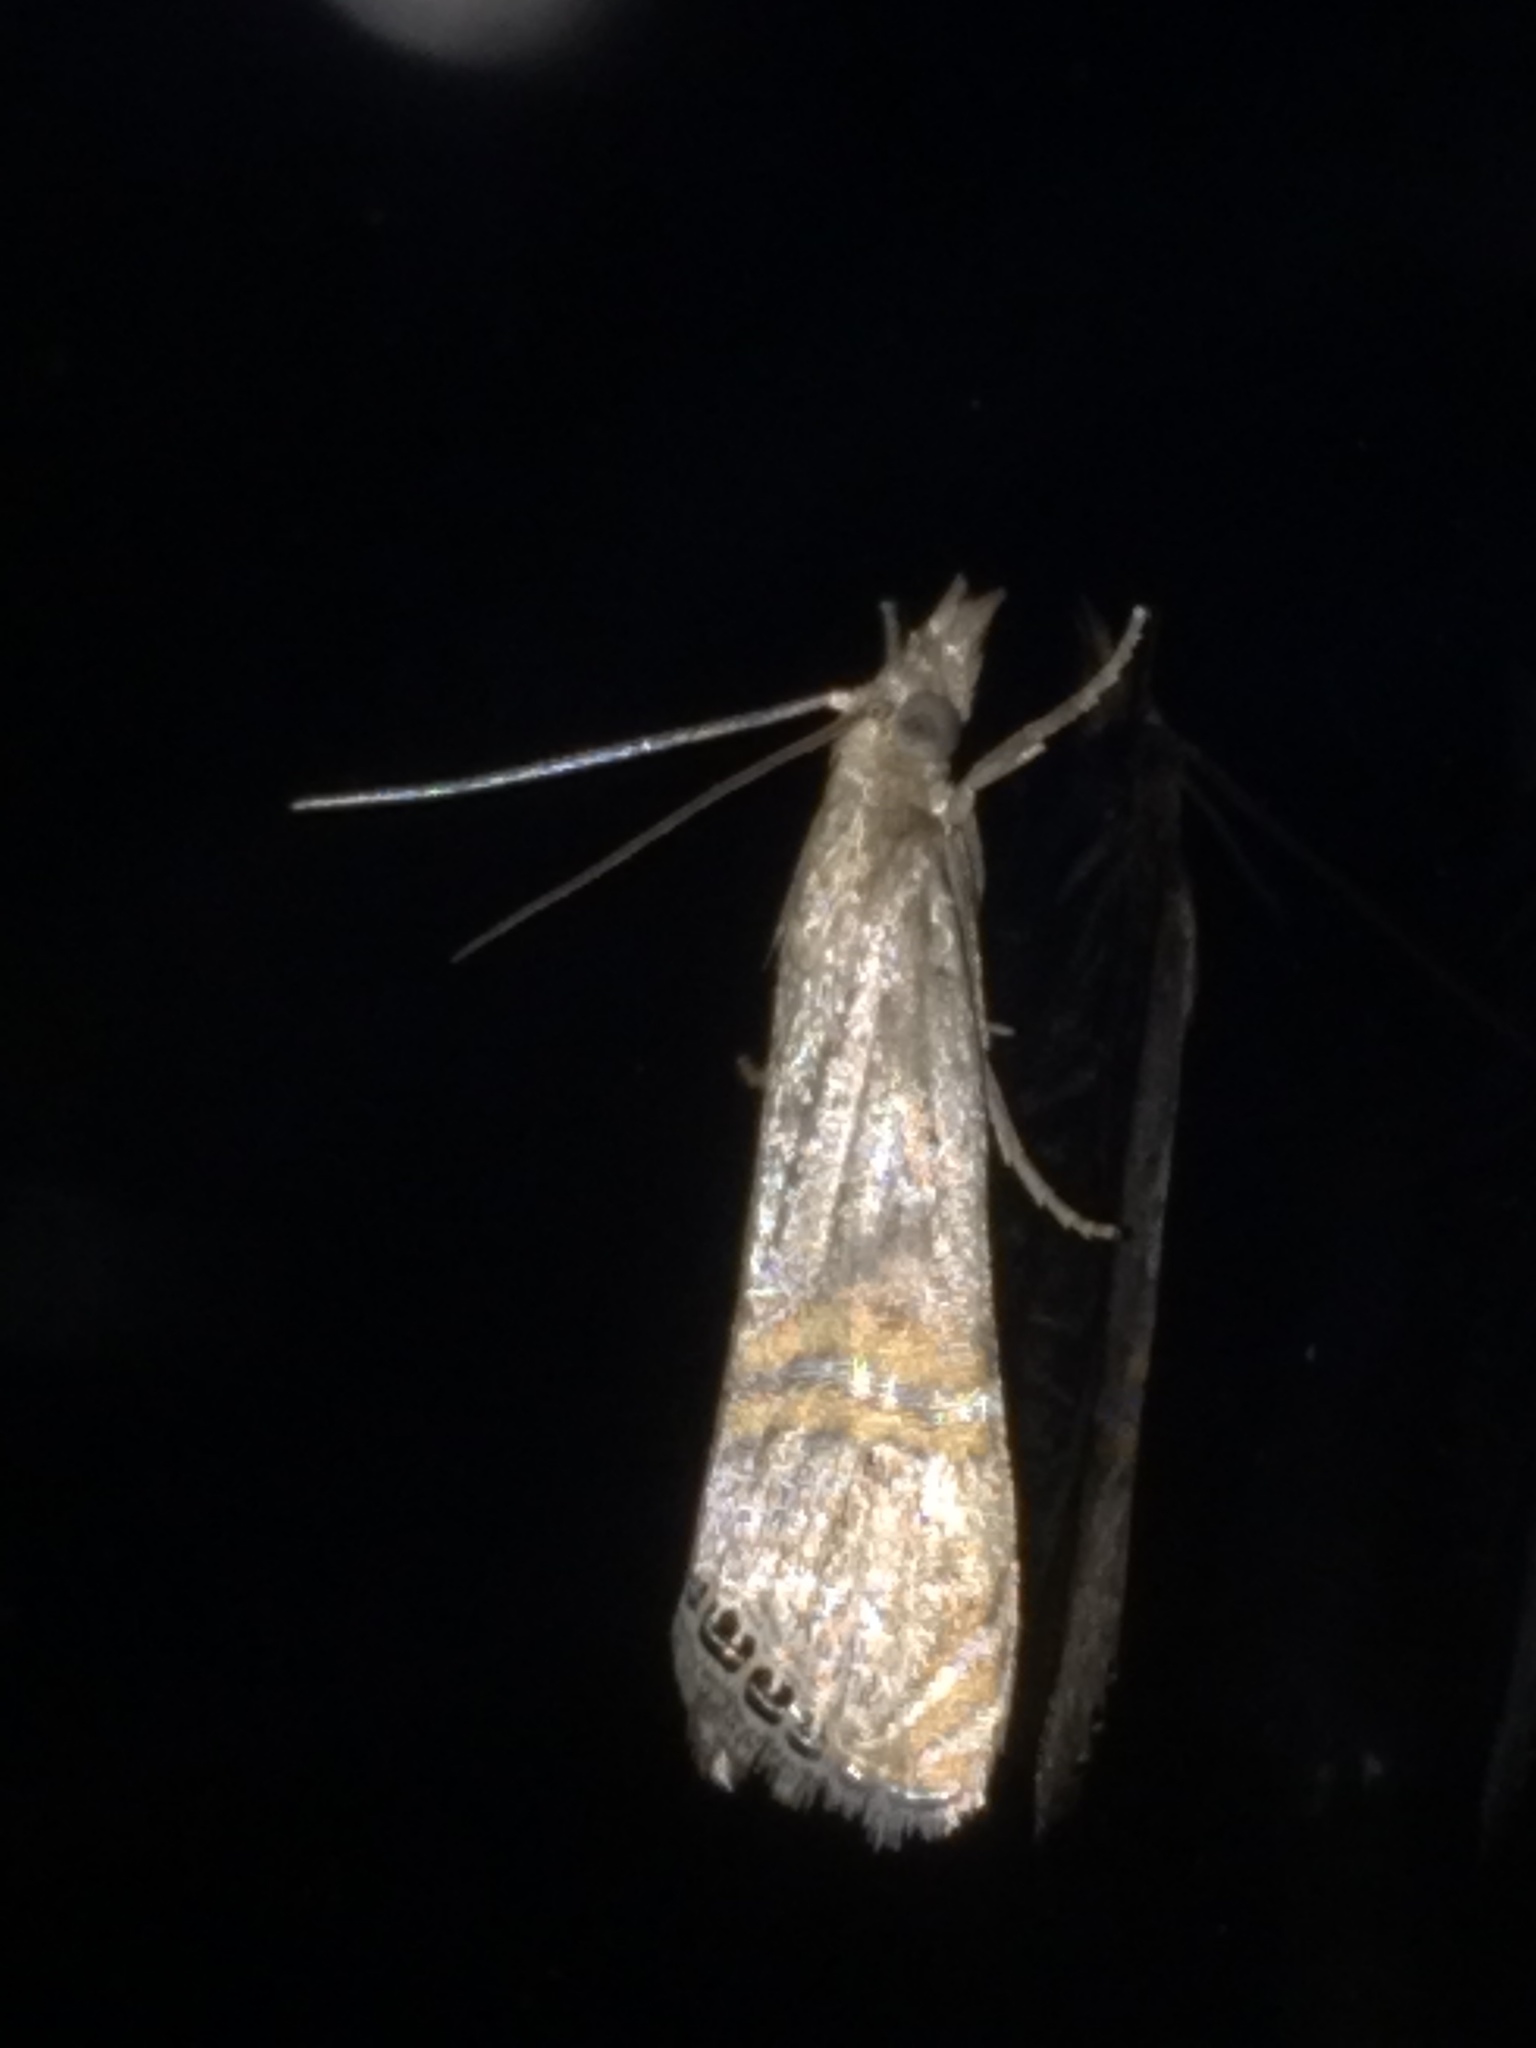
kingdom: Animalia
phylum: Arthropoda
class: Insecta
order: Lepidoptera
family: Crambidae
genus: Euchromius
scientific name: Euchromius ocellea
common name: Necklace veneer moth
